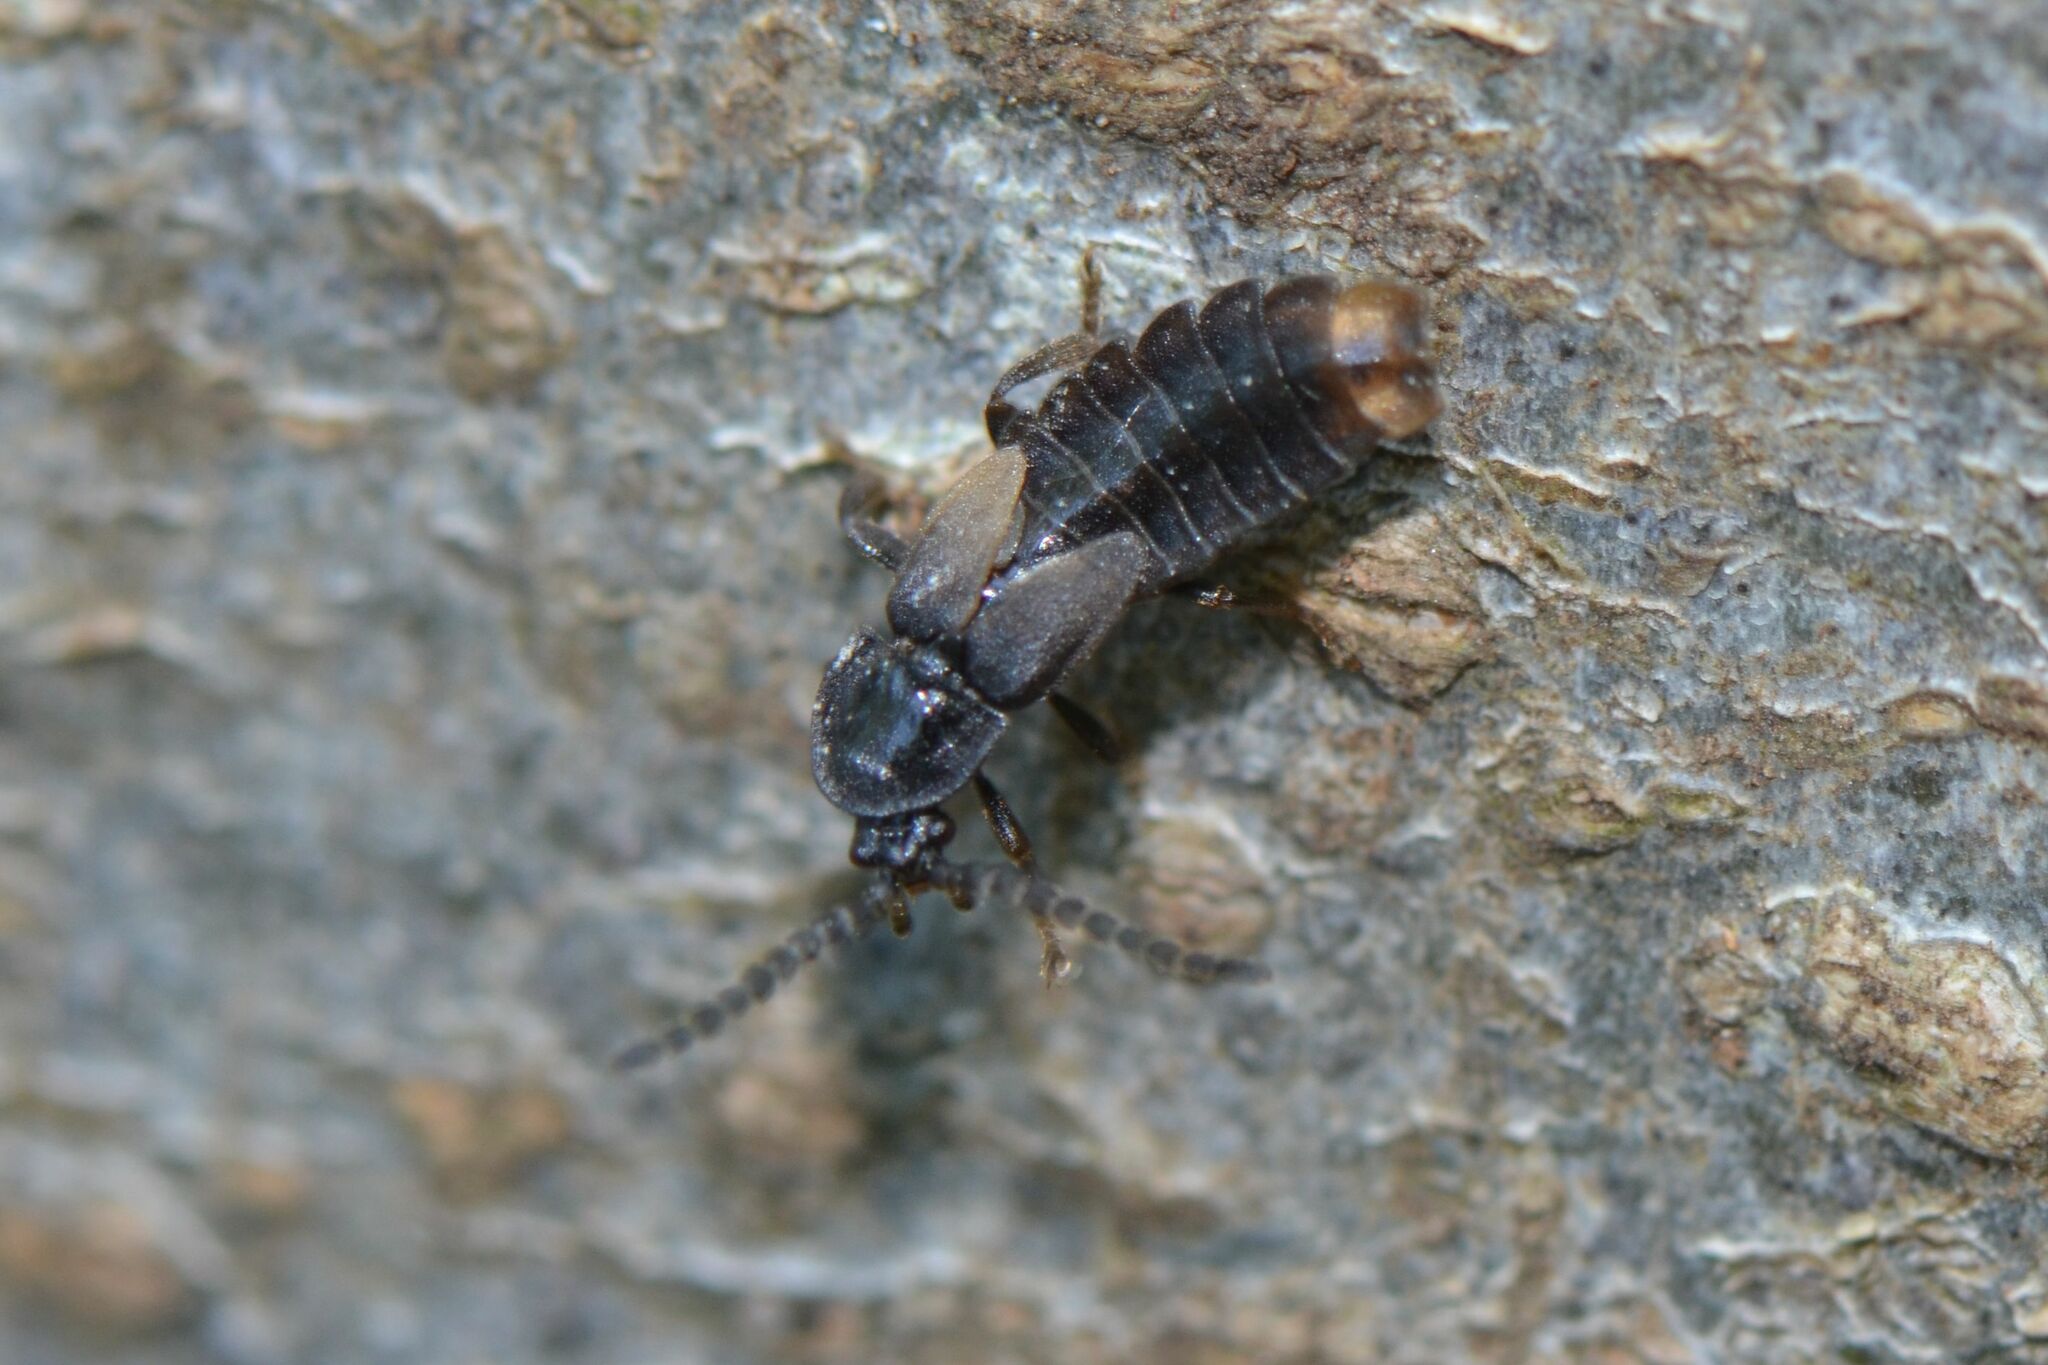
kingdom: Animalia
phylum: Arthropoda
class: Insecta
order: Coleoptera
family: Lampyridae
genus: Phosphaenus
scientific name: Phosphaenus hemipterus
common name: Short-winged firefly
